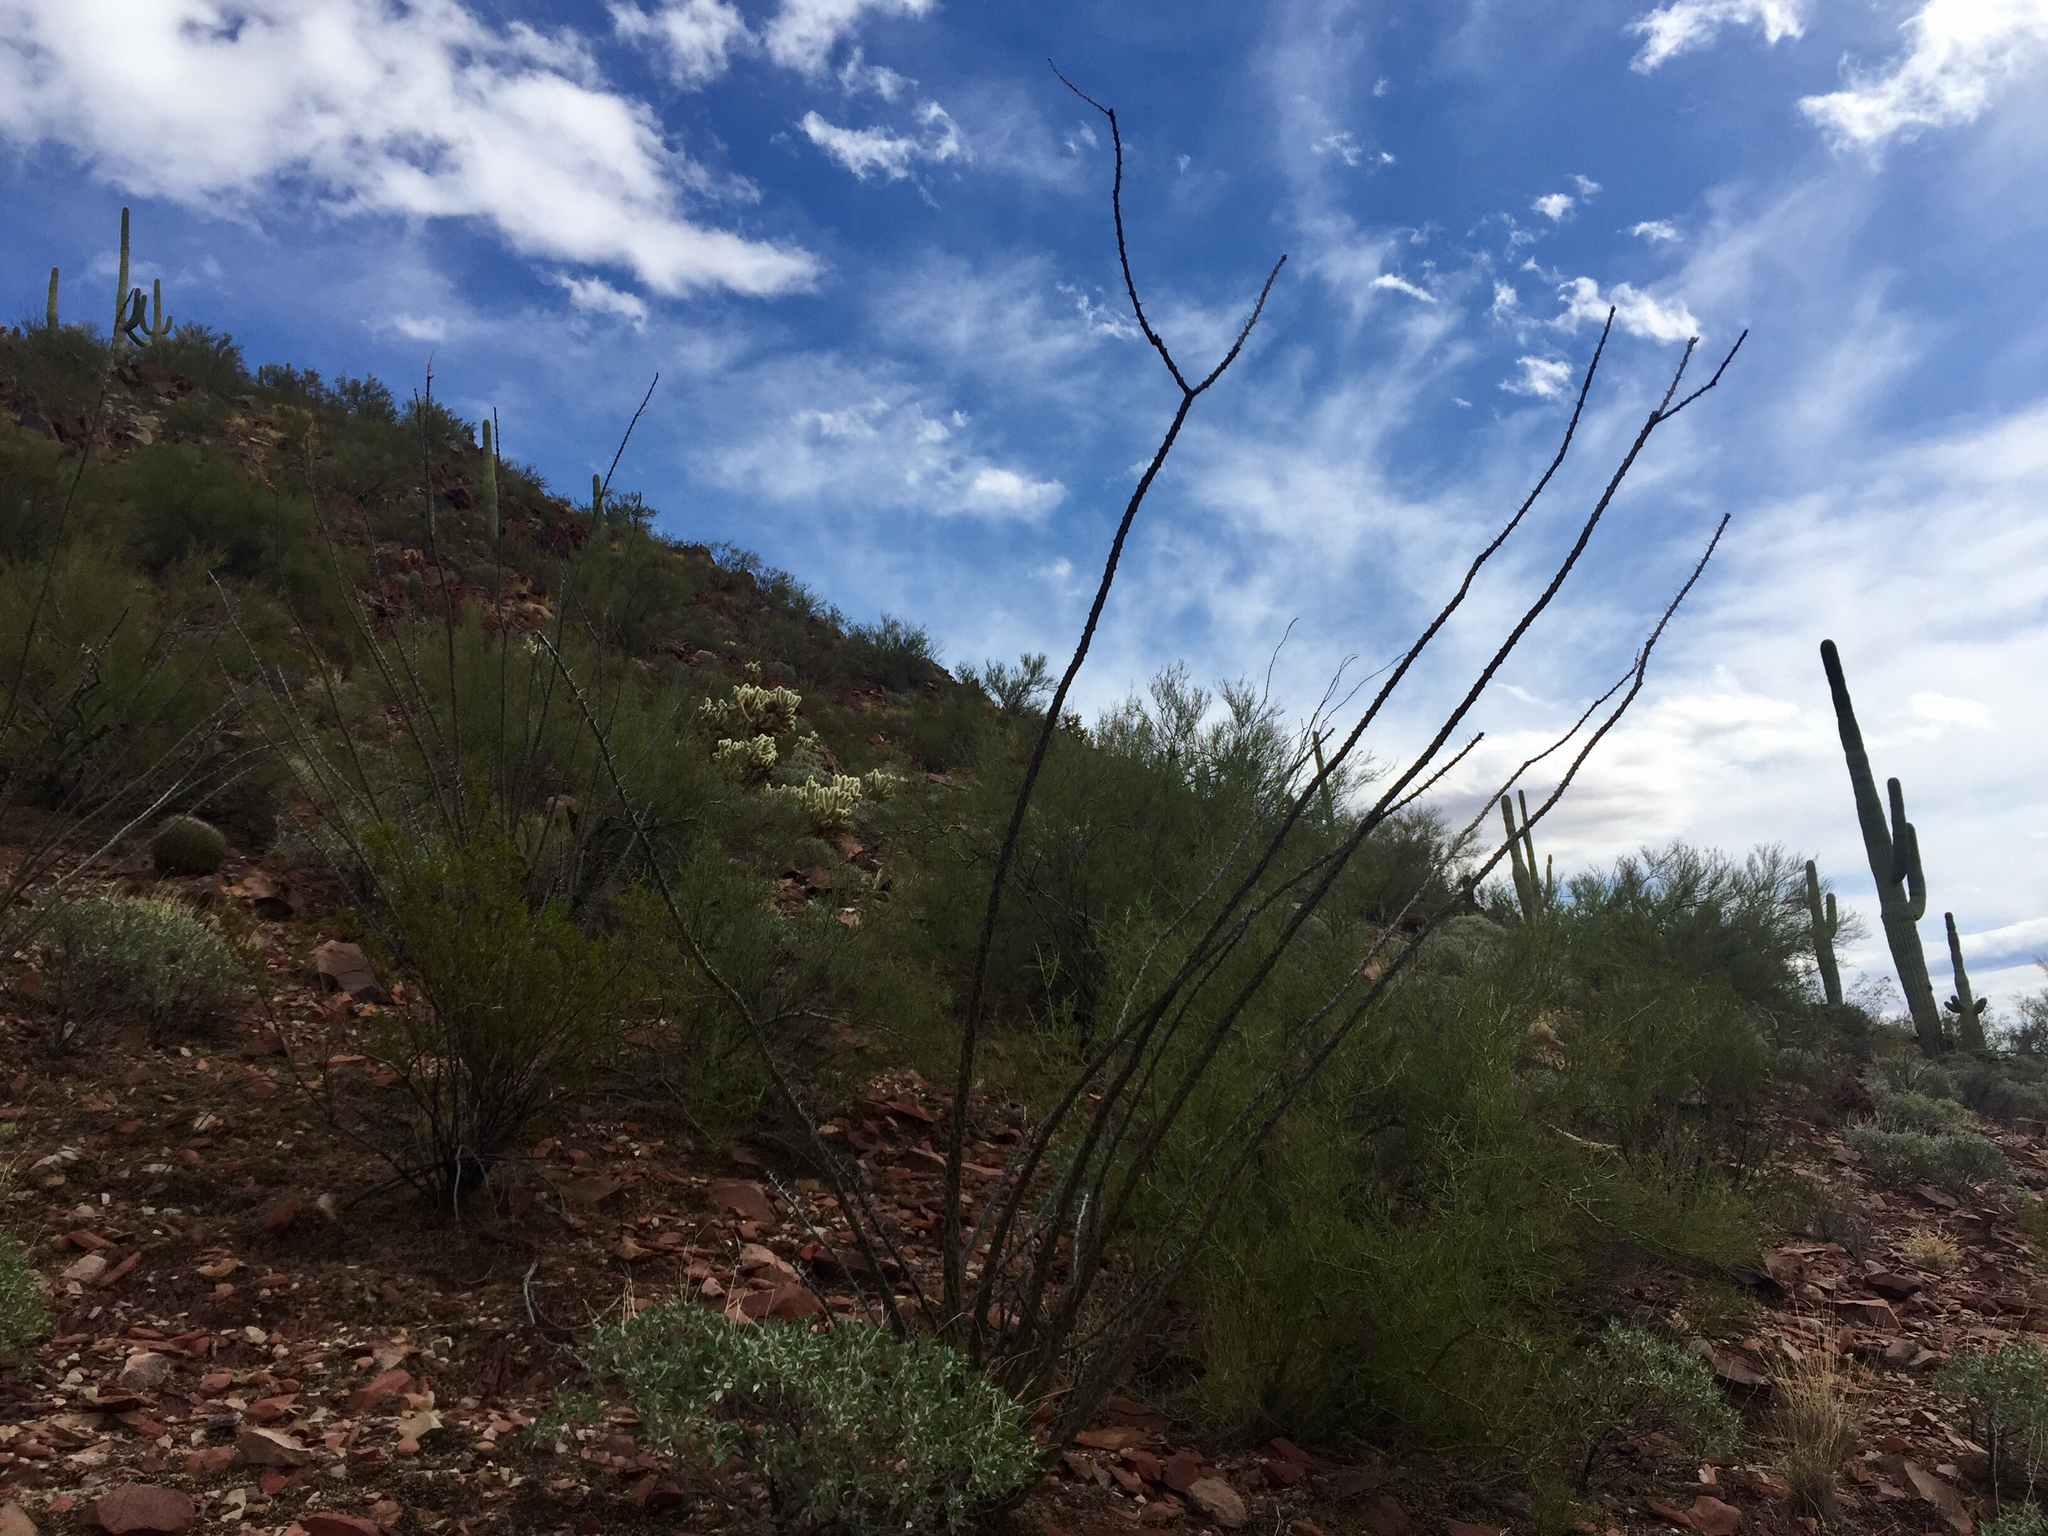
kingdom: Plantae
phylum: Tracheophyta
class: Magnoliopsida
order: Ericales
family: Fouquieriaceae
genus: Fouquieria
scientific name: Fouquieria splendens
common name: Vine-cactus
